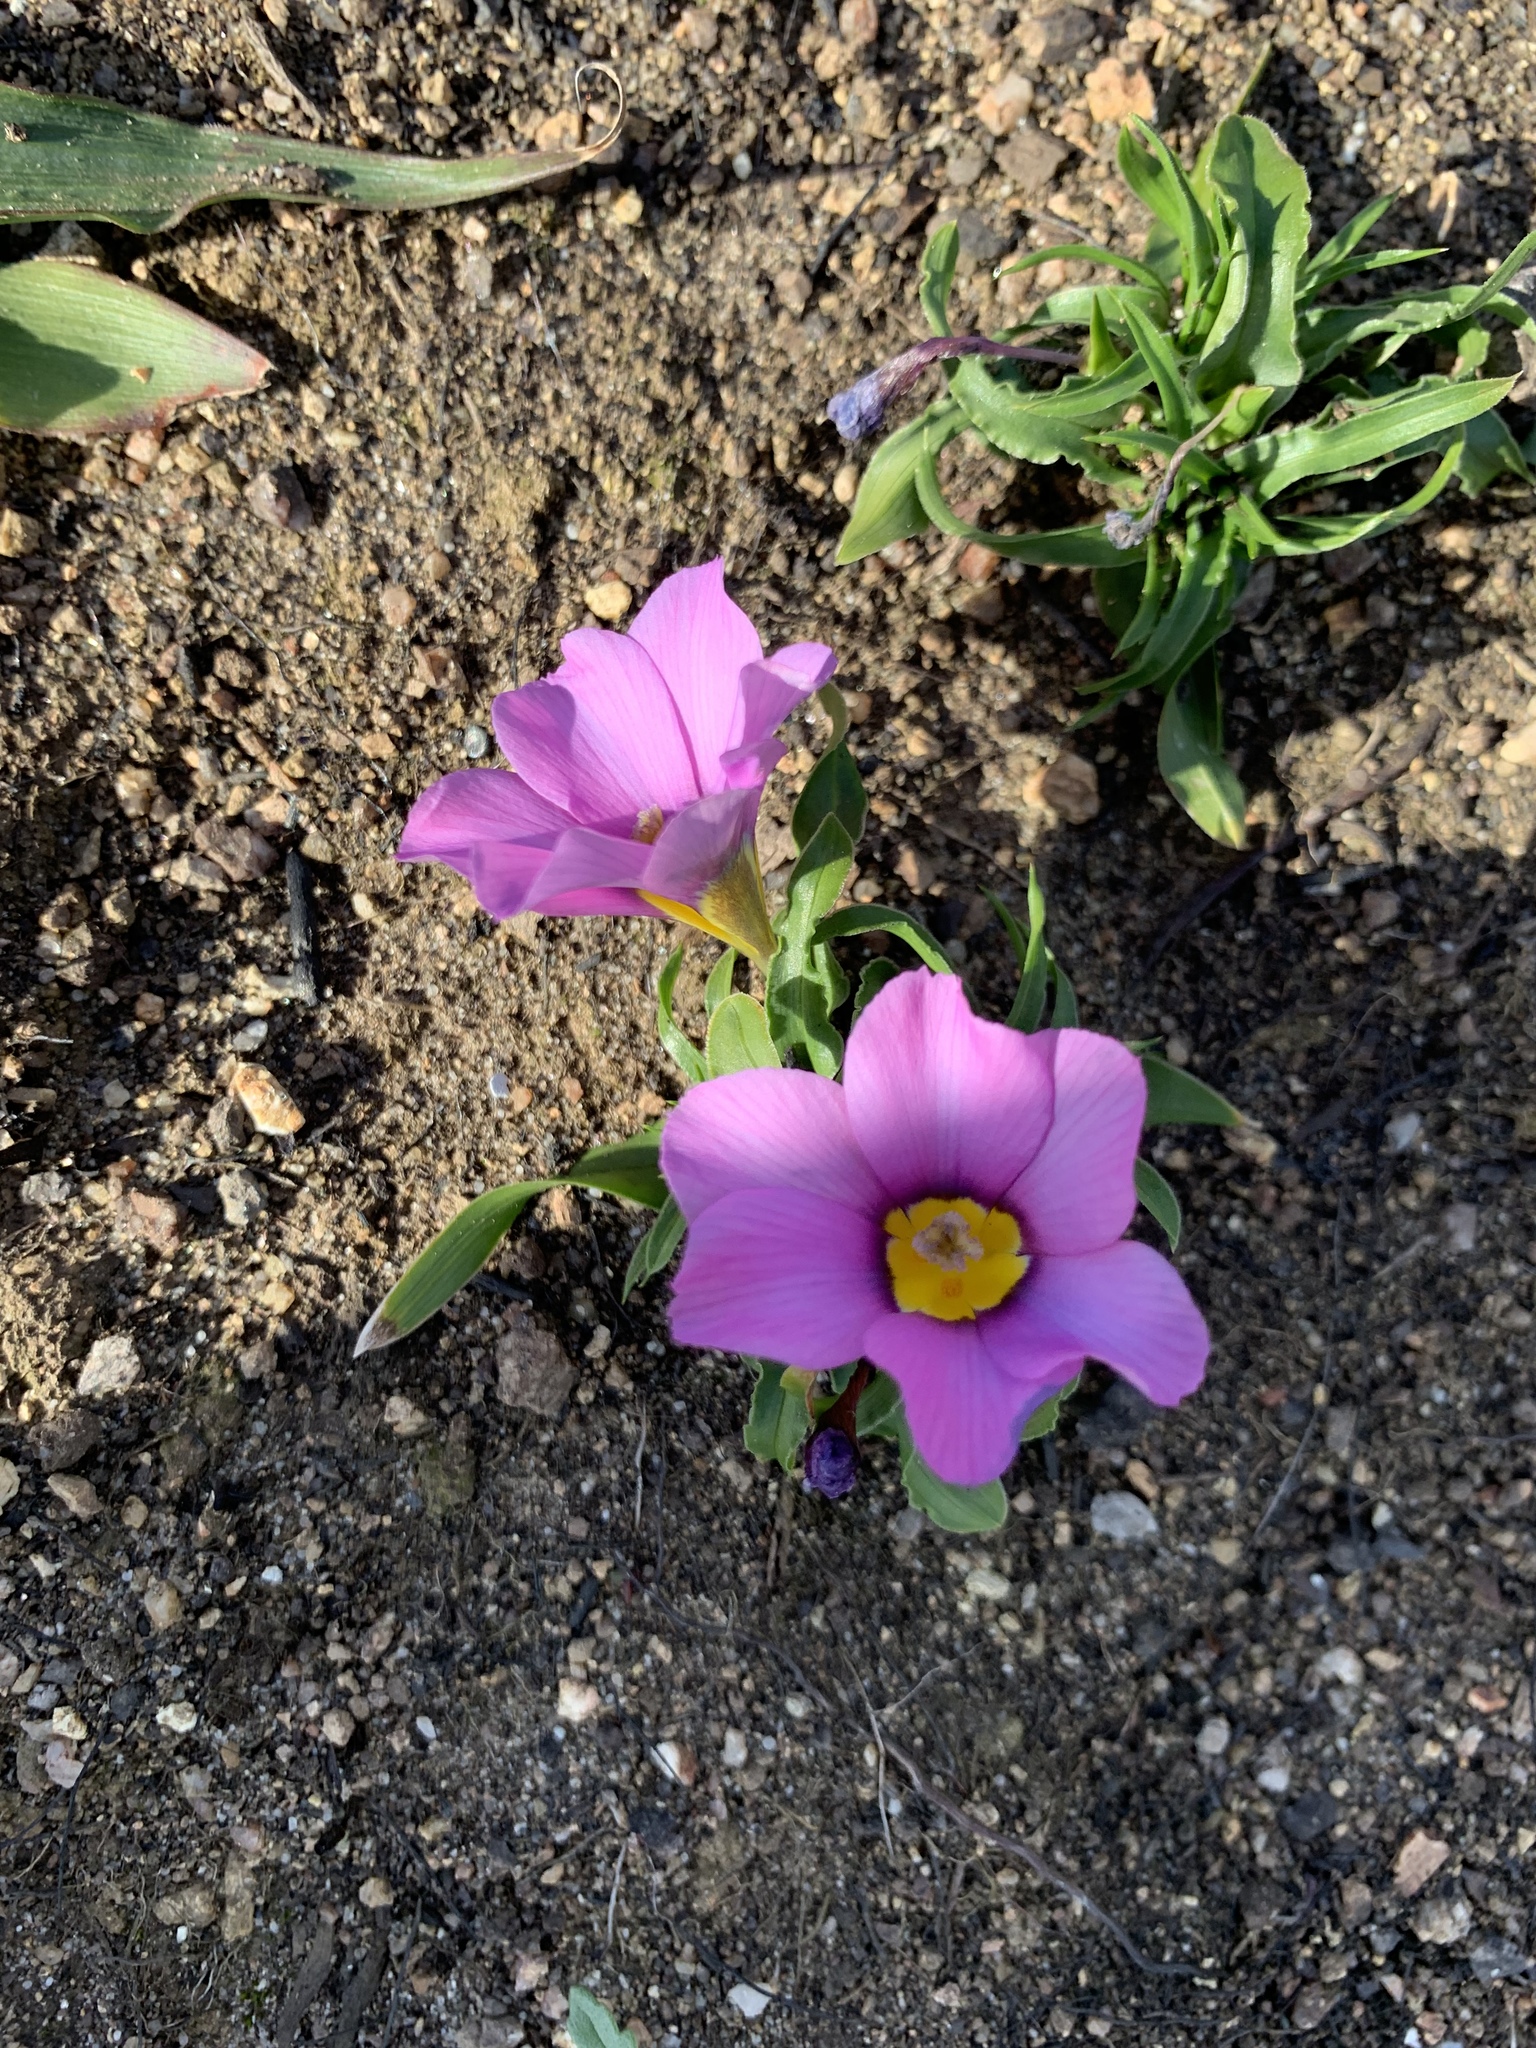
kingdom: Plantae
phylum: Tracheophyta
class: Liliopsida
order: Asparagales
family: Iridaceae
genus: Moraea
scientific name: Moraea versicolor
